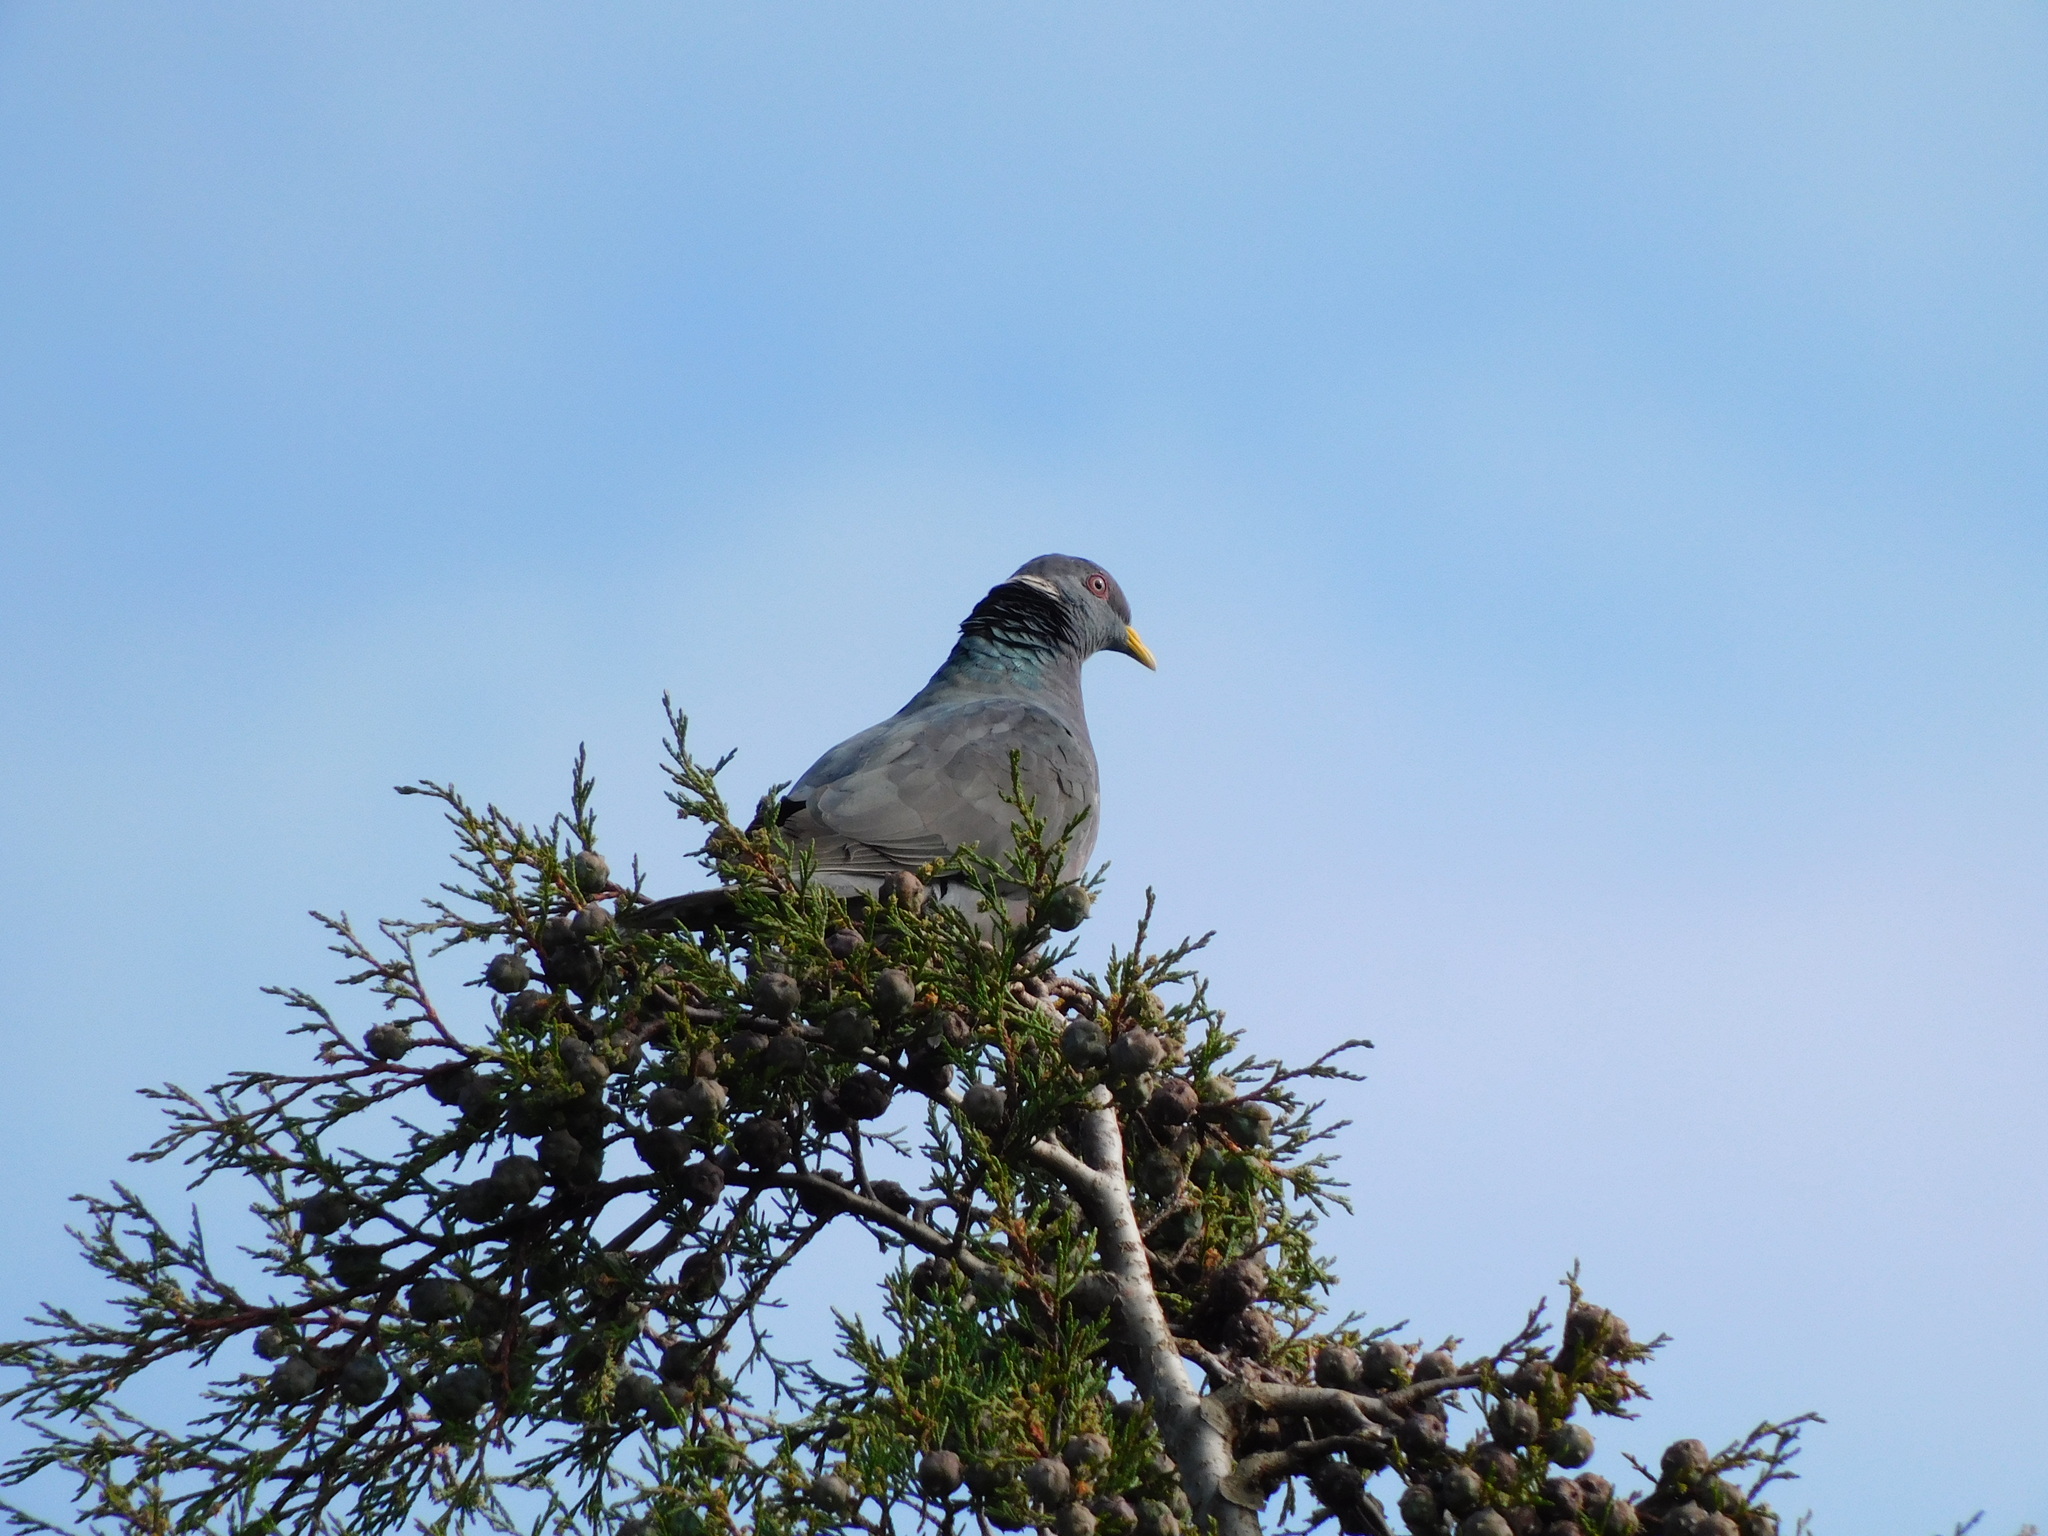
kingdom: Animalia
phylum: Chordata
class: Aves
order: Columbiformes
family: Columbidae
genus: Patagioenas
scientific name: Patagioenas fasciata
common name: Band-tailed pigeon
